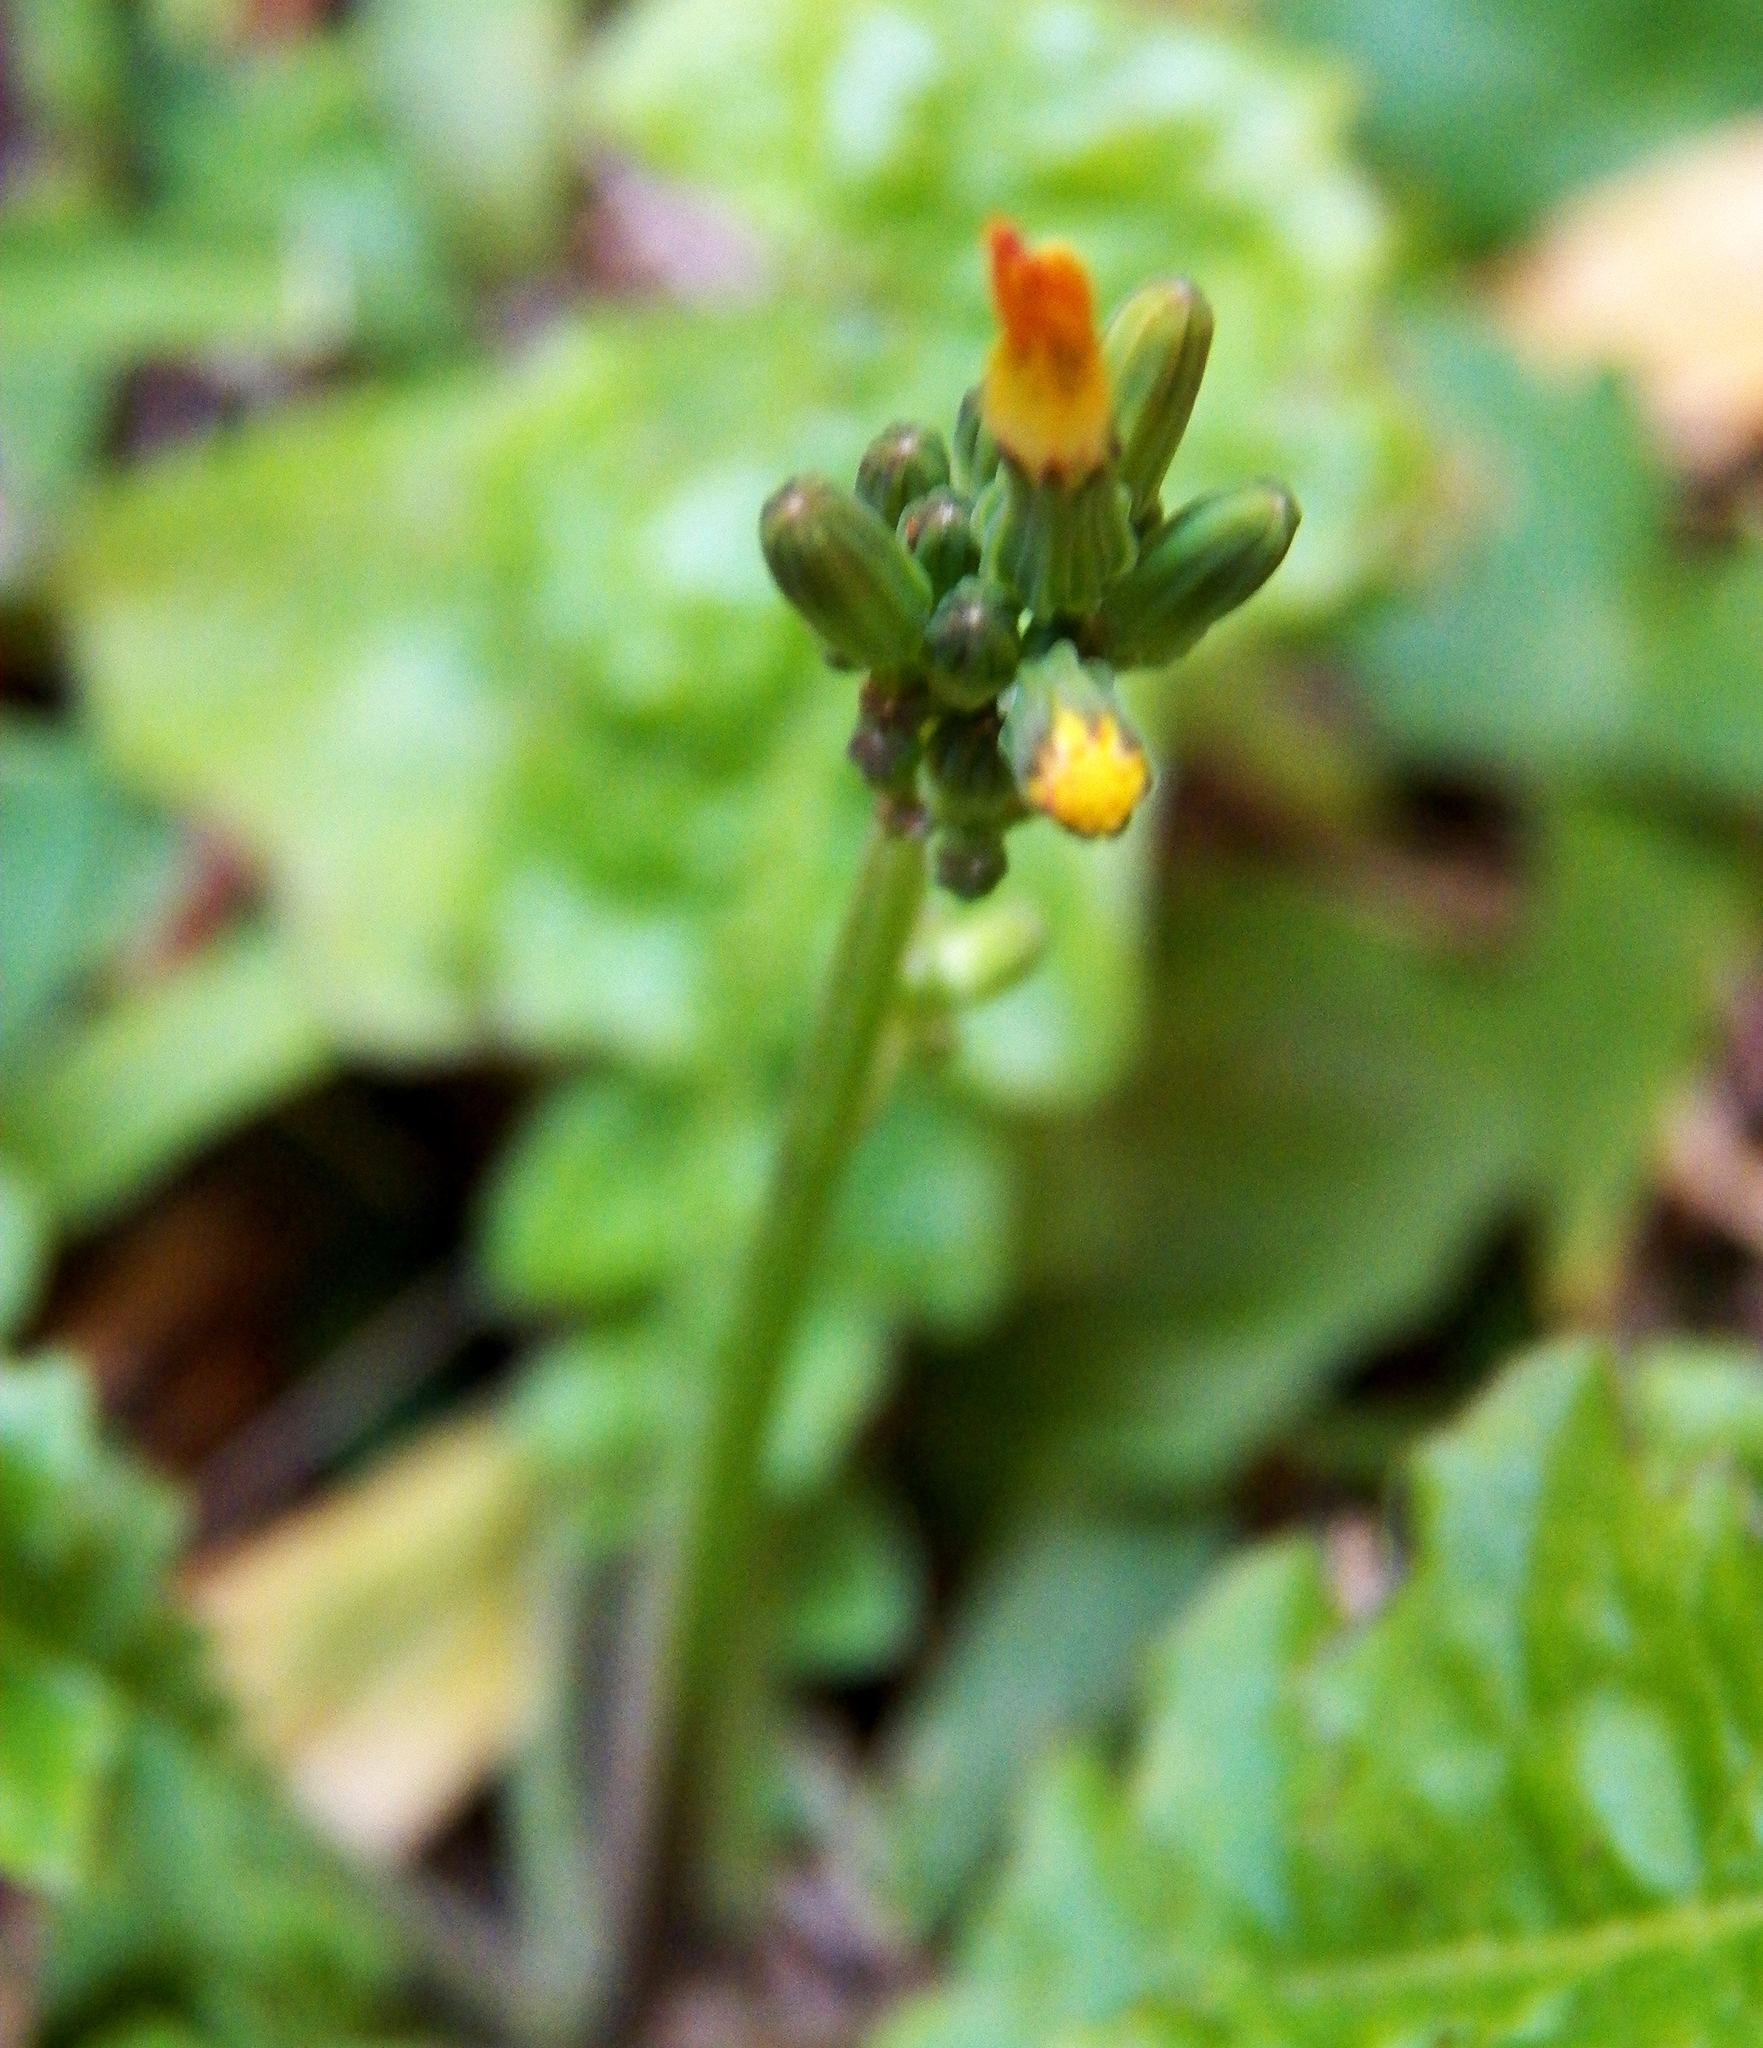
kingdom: Plantae
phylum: Tracheophyta
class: Magnoliopsida
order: Asterales
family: Asteraceae
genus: Youngia
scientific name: Youngia japonica
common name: Oriental false hawksbeard
